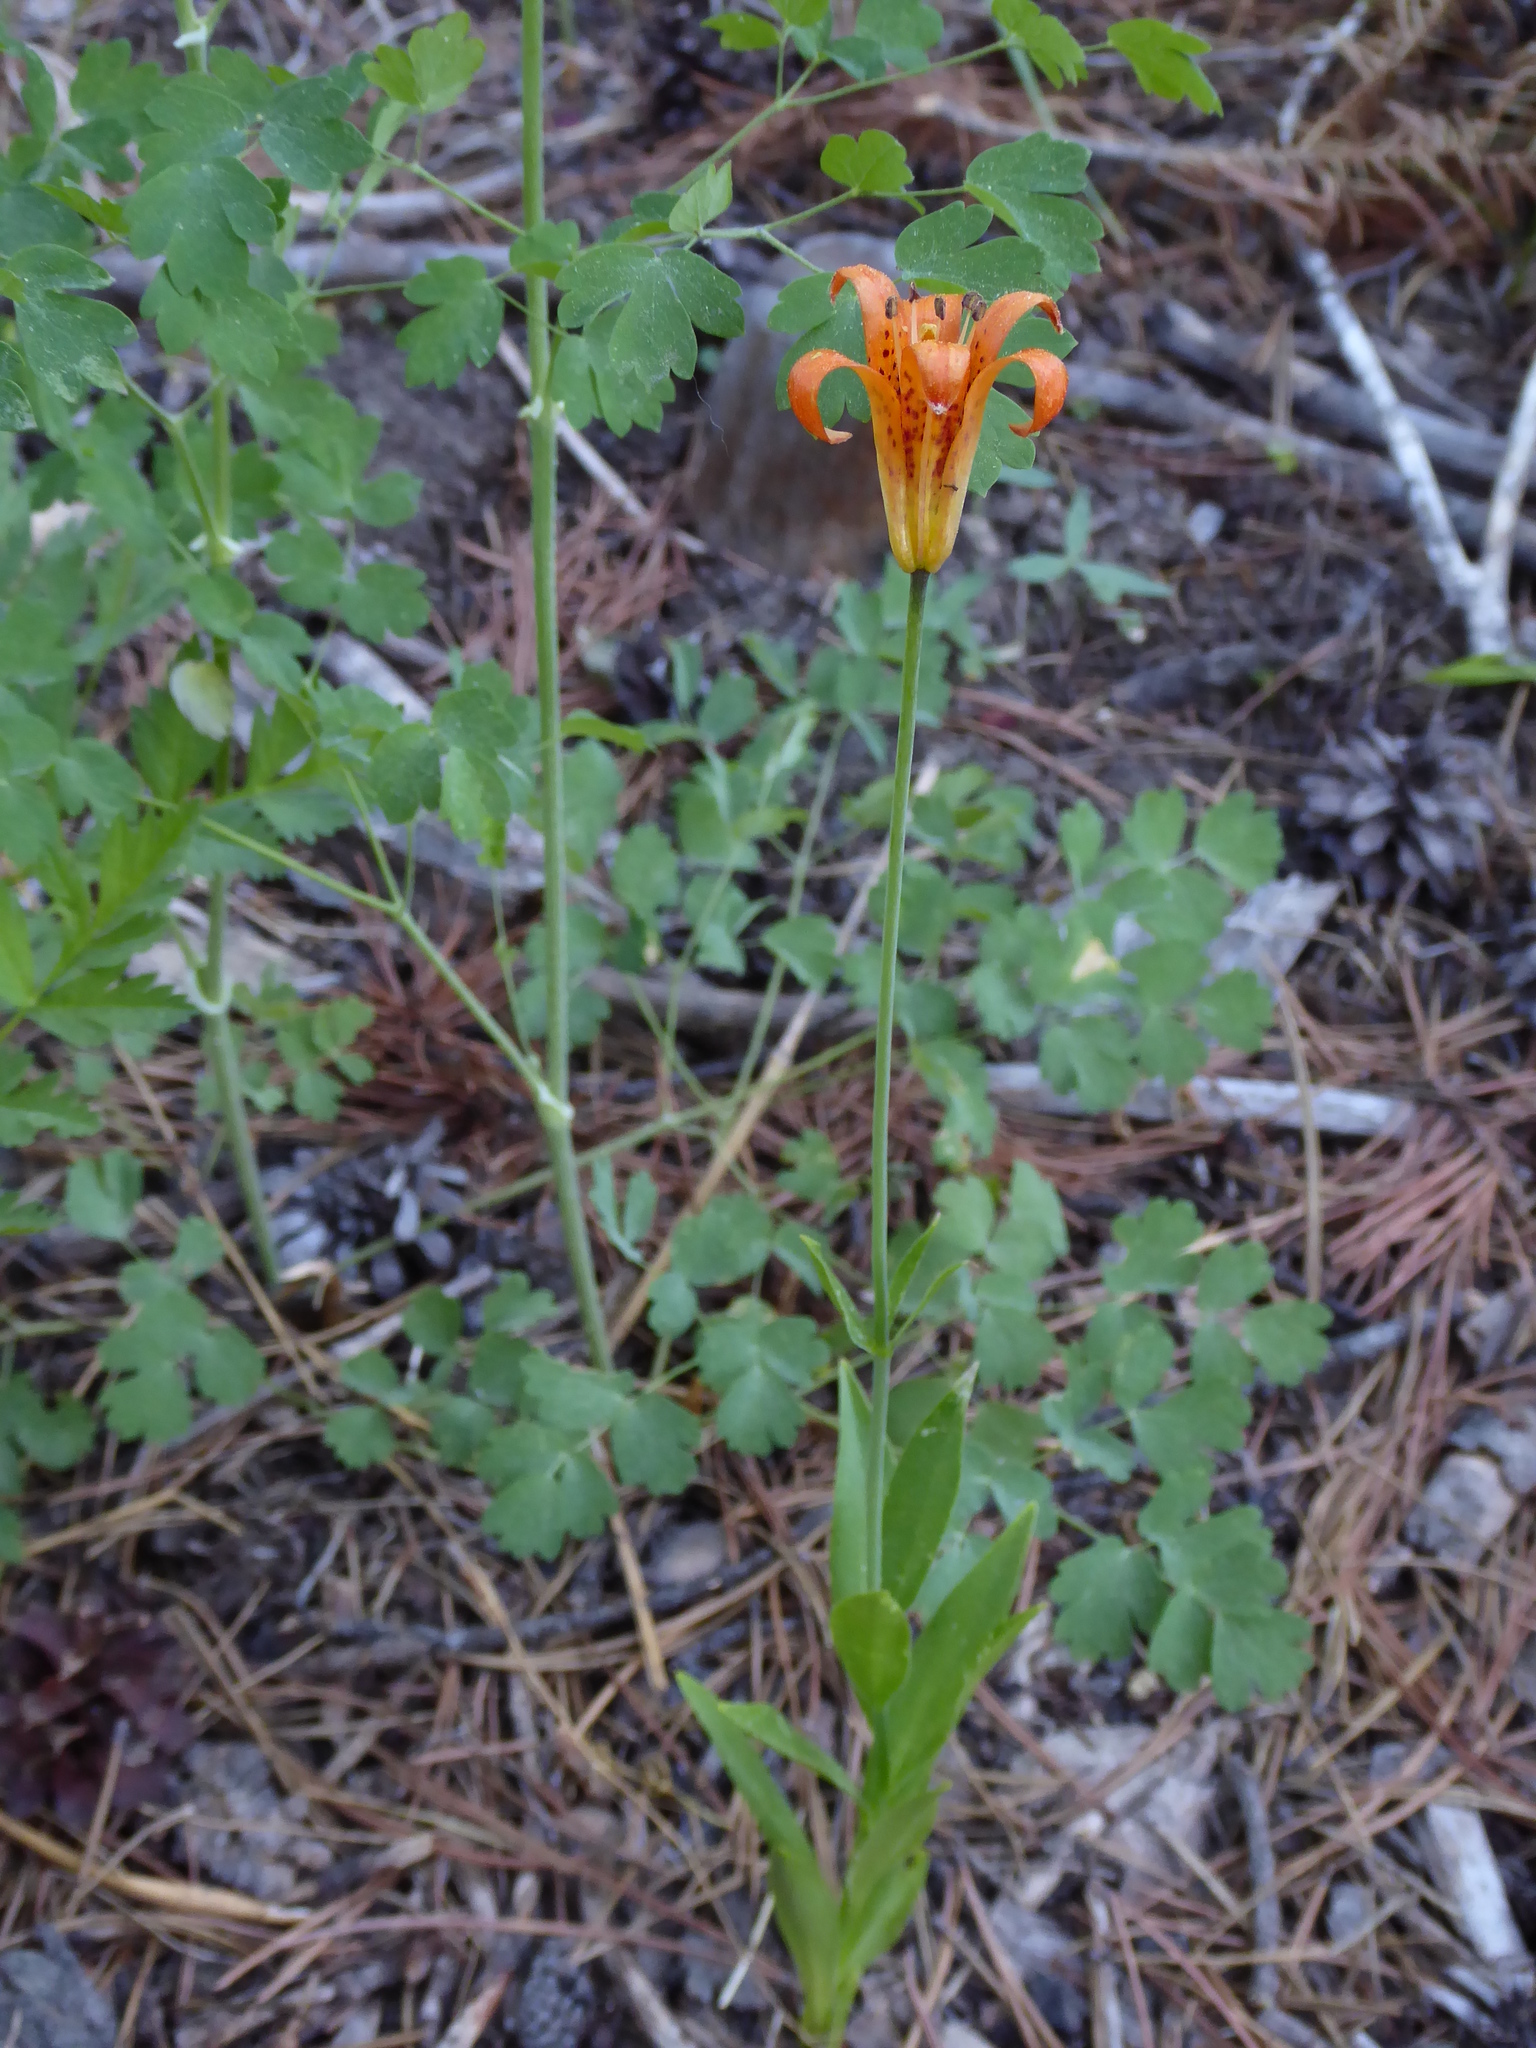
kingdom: Plantae
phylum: Tracheophyta
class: Liliopsida
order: Liliales
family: Liliaceae
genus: Lilium
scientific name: Lilium parvum
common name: Alpine lily
